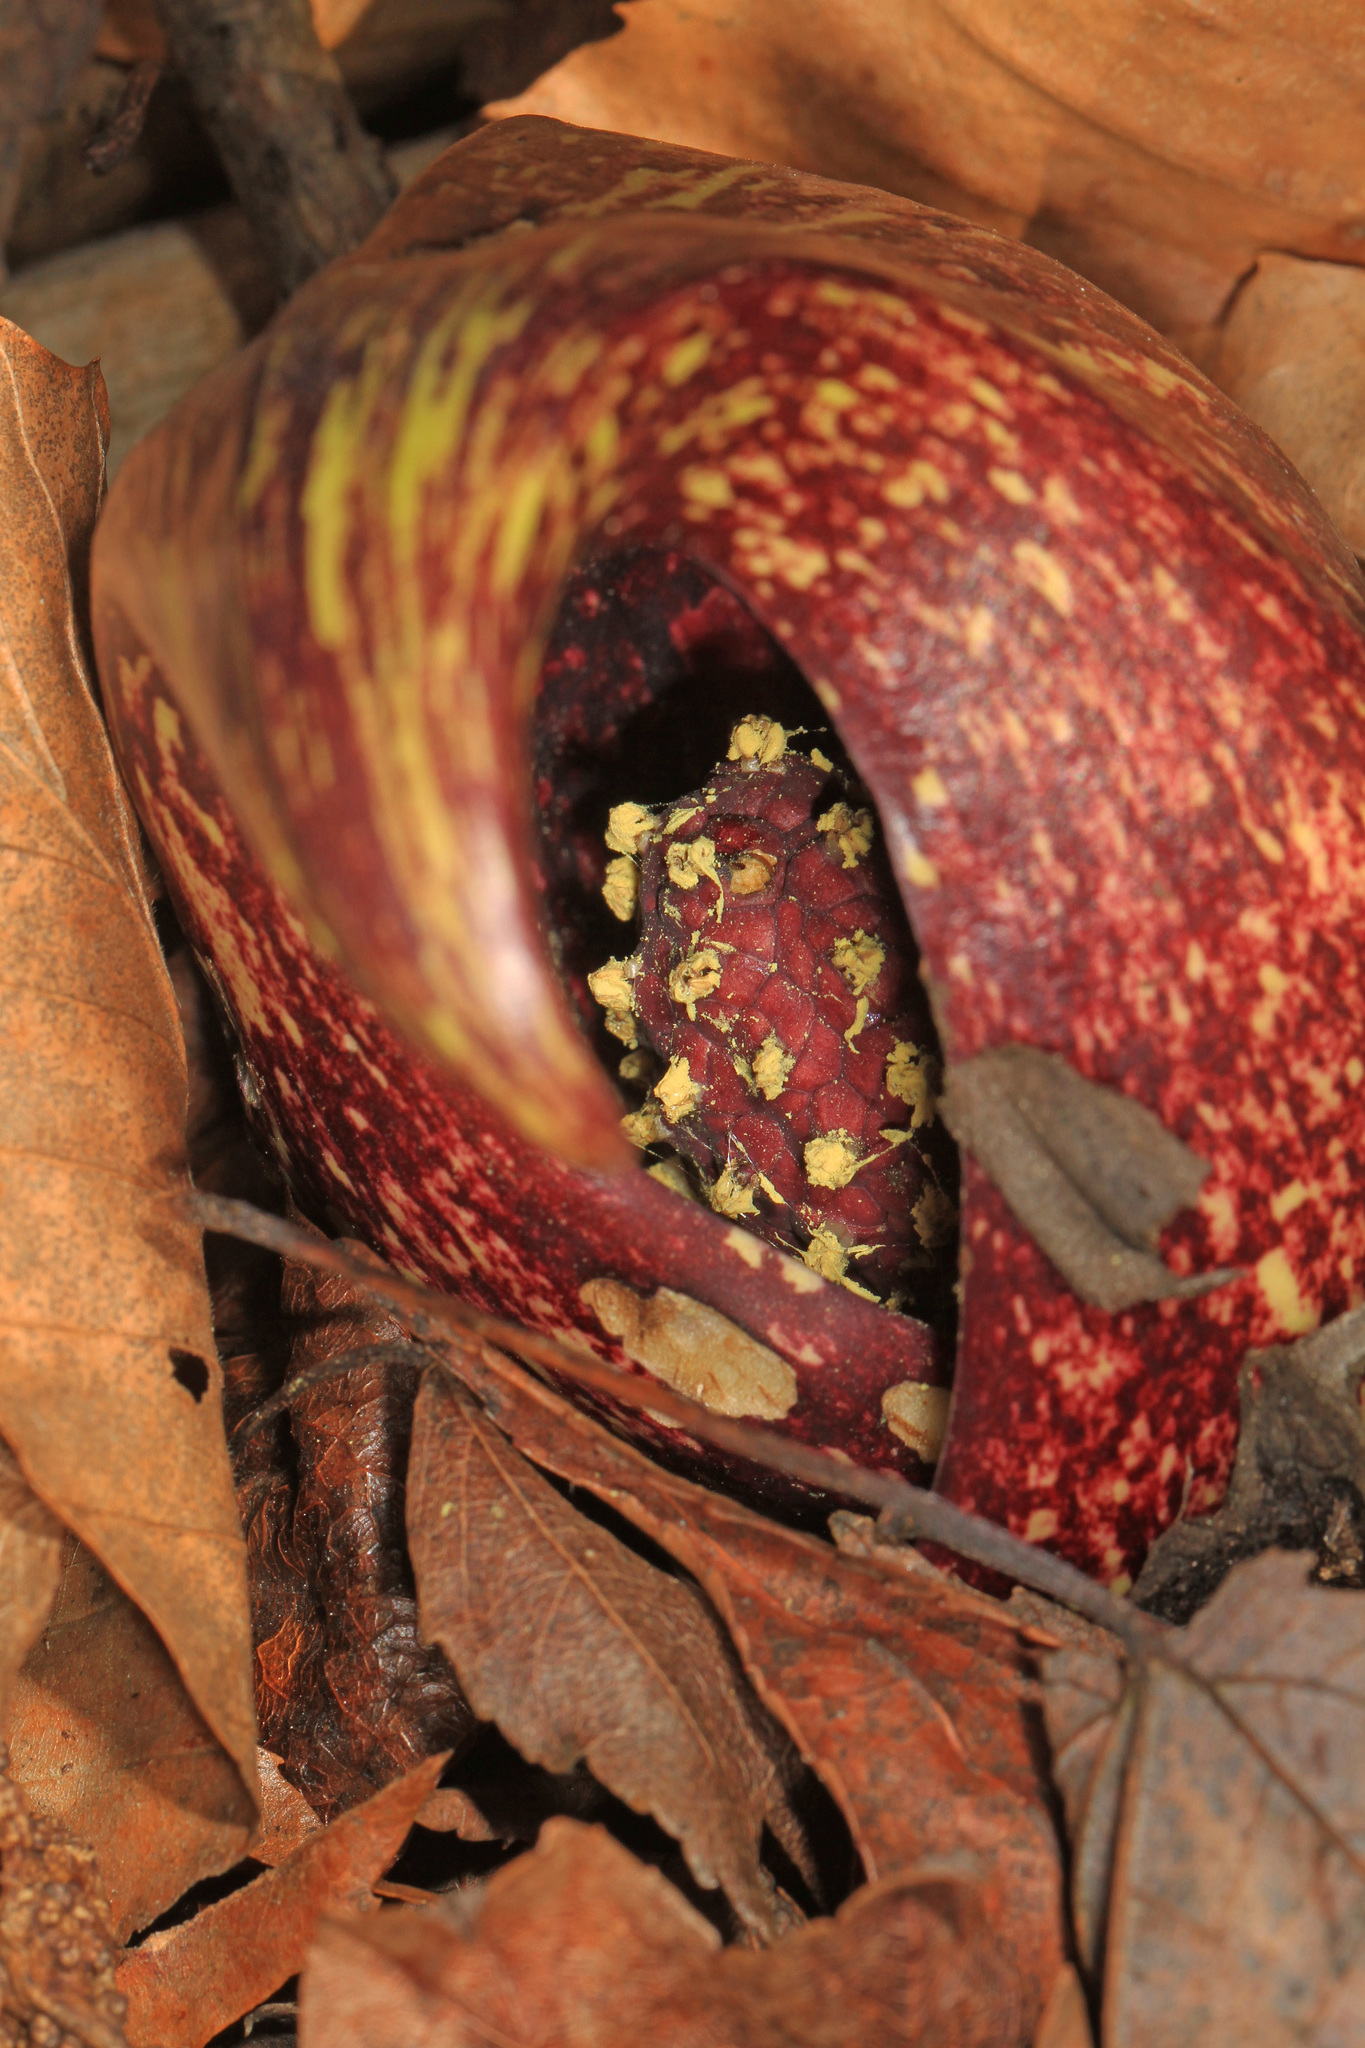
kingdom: Plantae
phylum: Tracheophyta
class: Liliopsida
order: Alismatales
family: Araceae
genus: Symplocarpus
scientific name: Symplocarpus foetidus
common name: Eastern skunk cabbage
